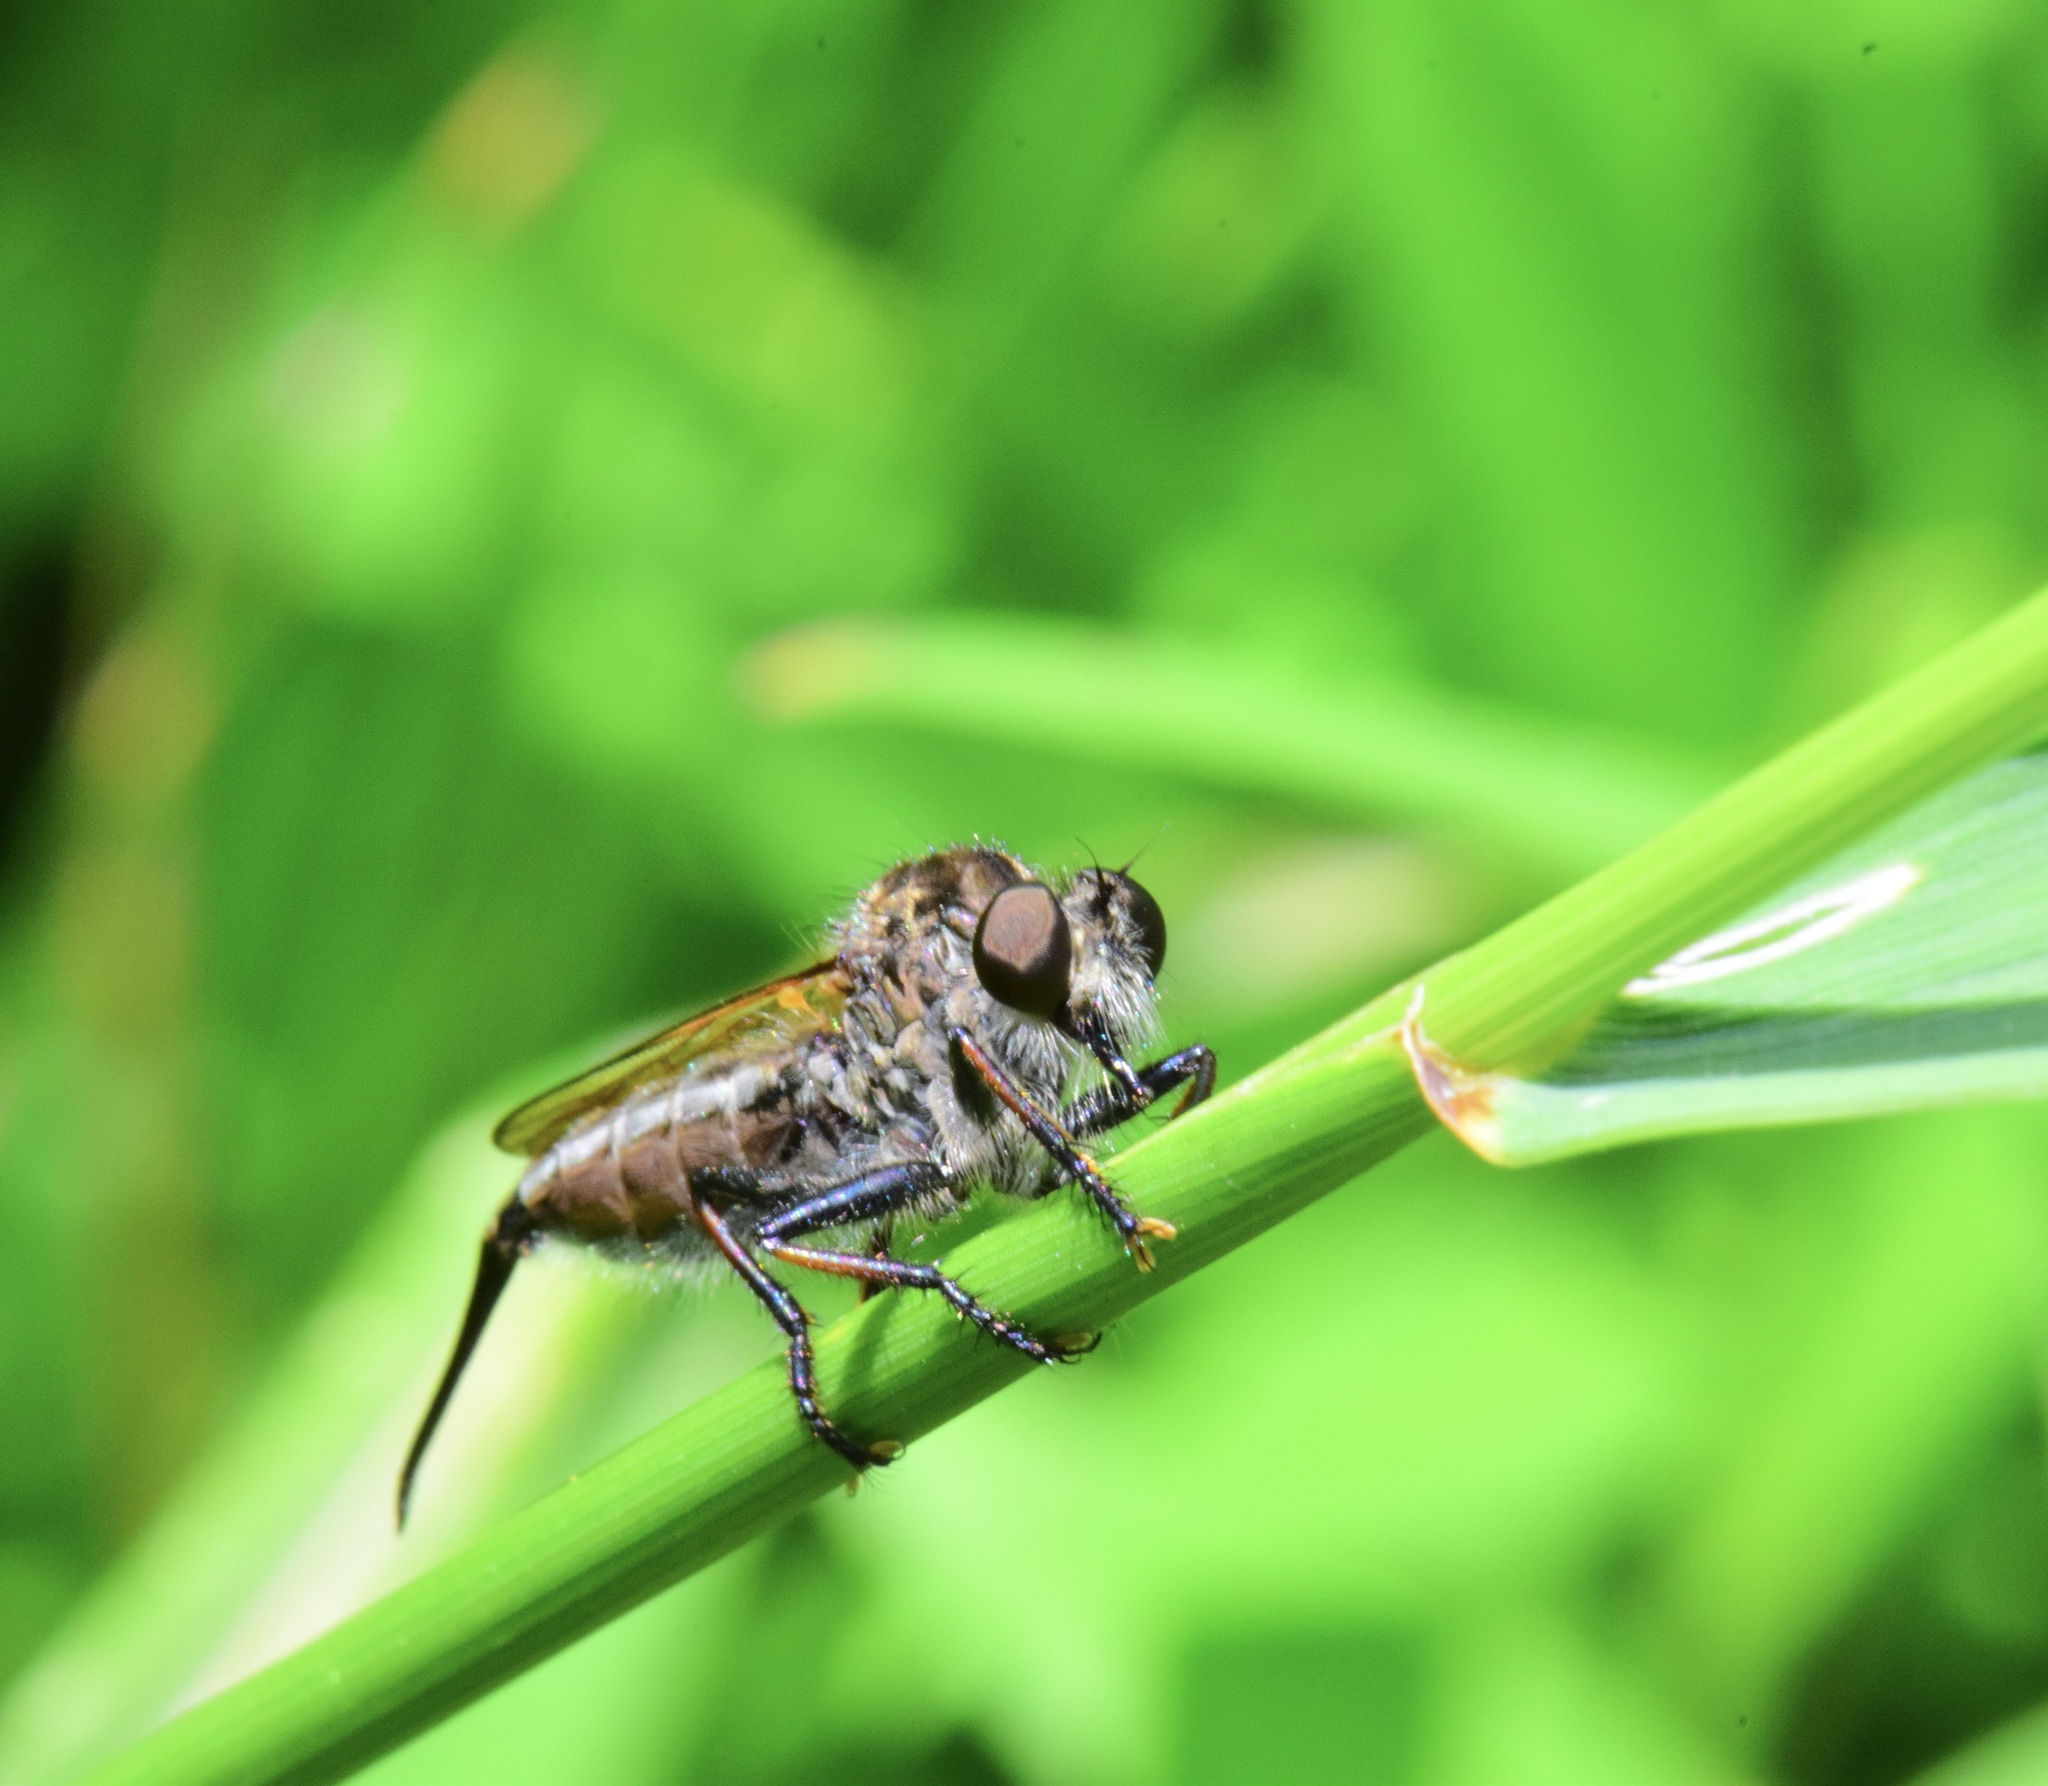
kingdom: Animalia
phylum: Arthropoda
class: Insecta
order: Diptera
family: Asilidae
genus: Efferia
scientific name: Efferia aestuans
